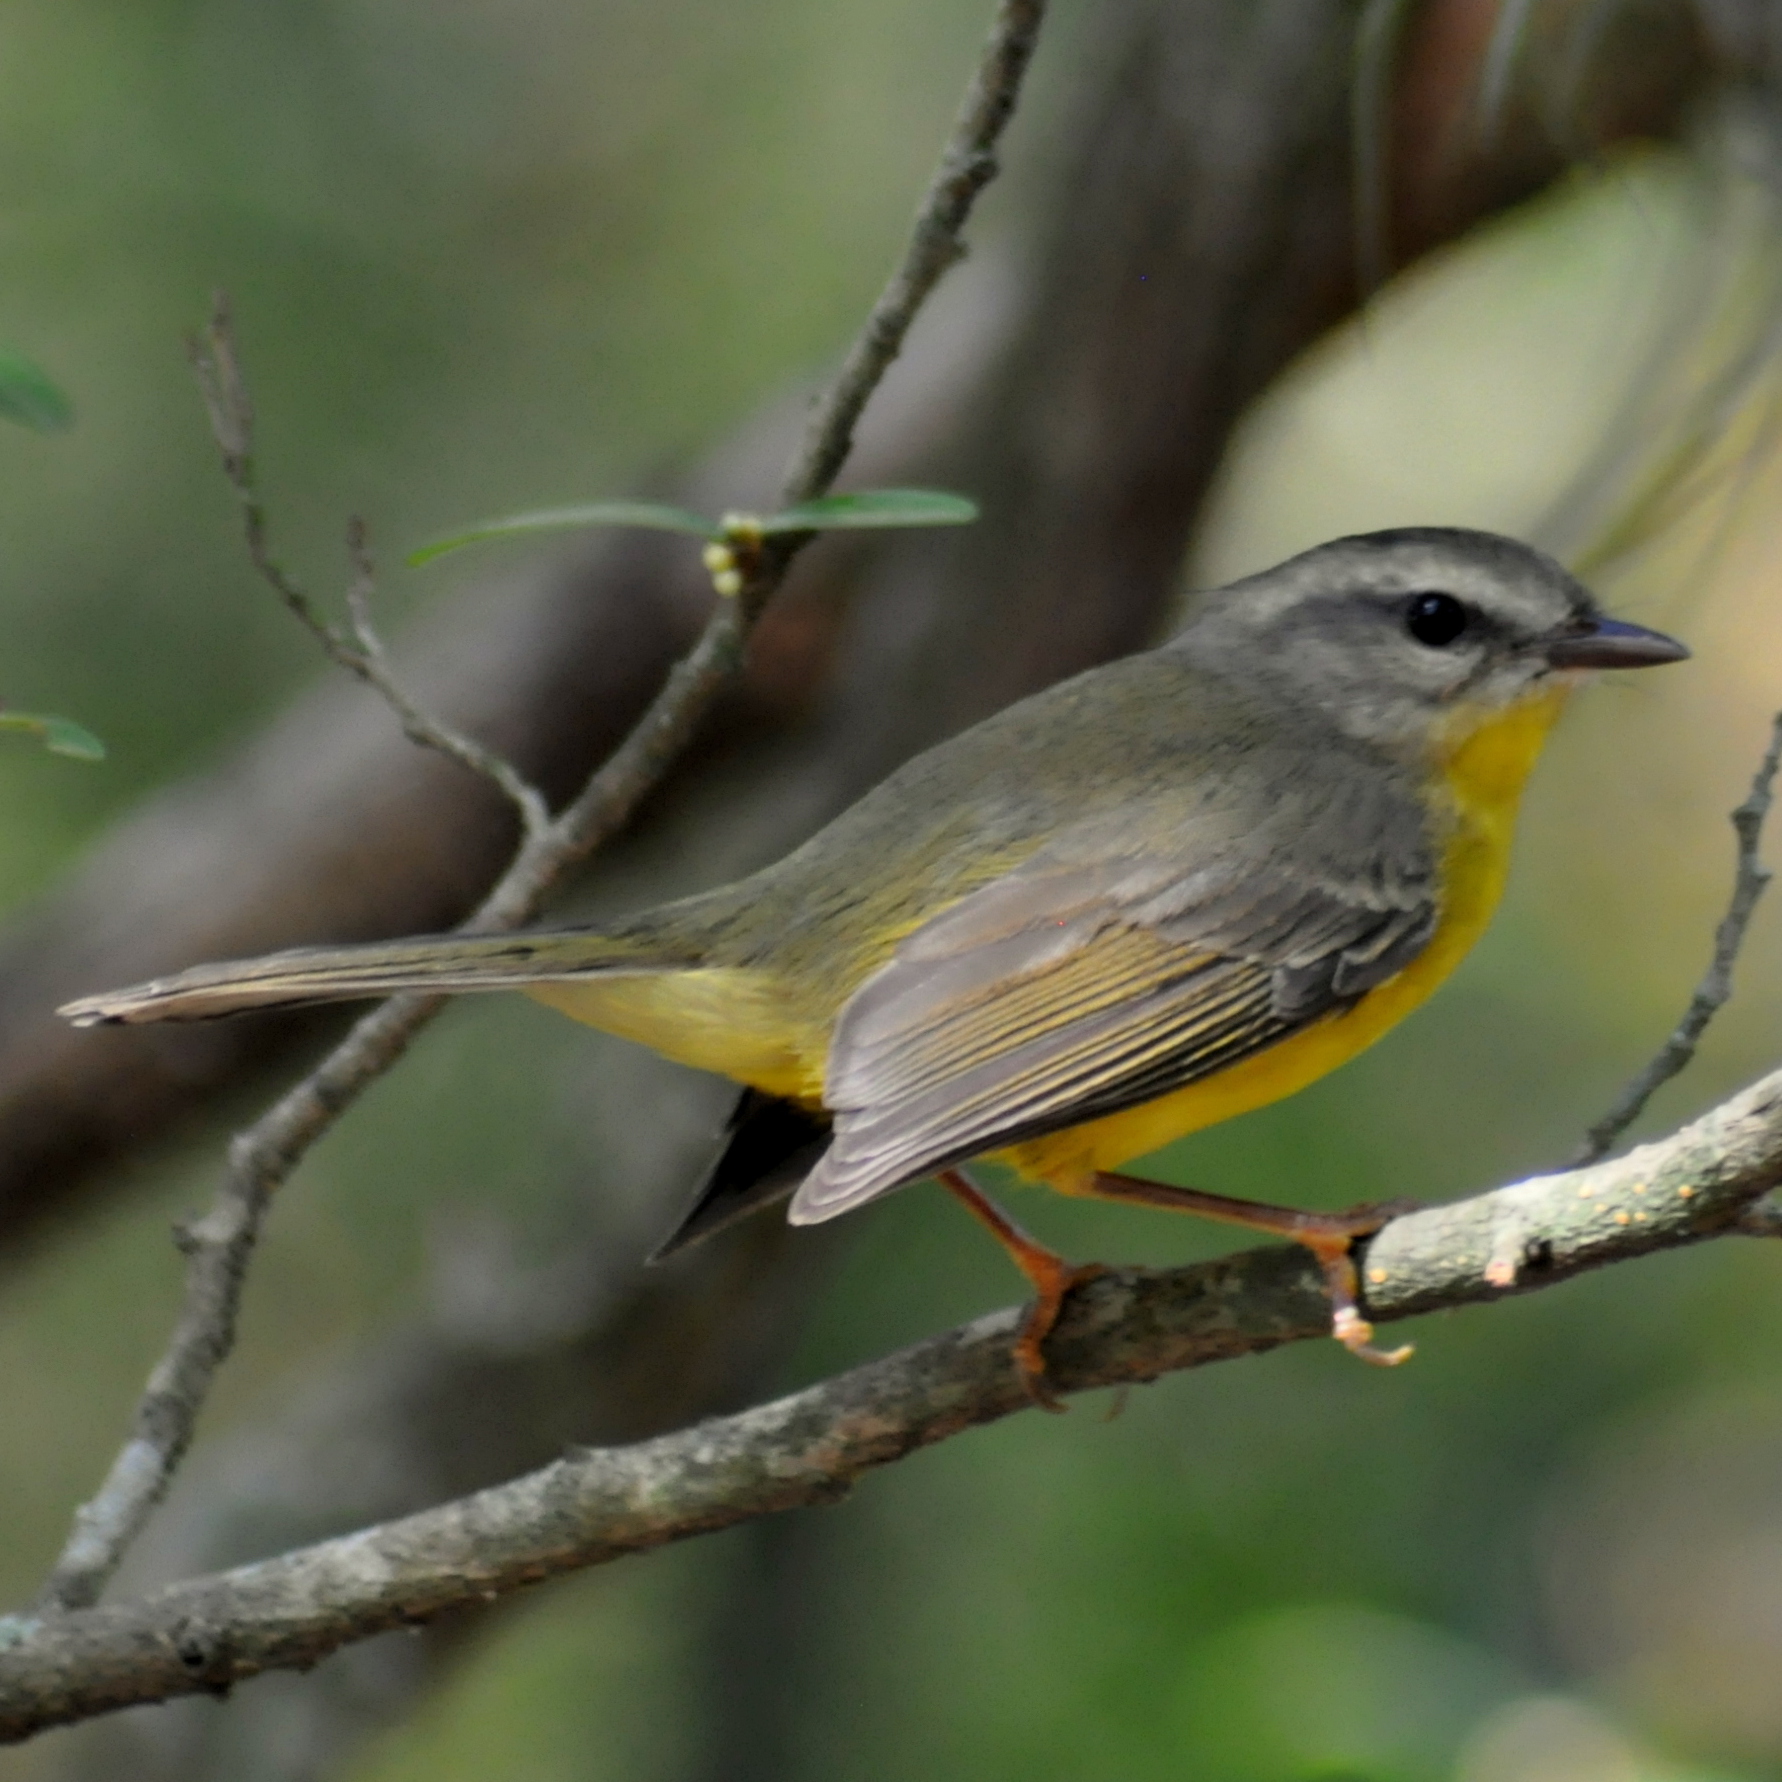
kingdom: Animalia
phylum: Chordata
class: Aves
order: Passeriformes
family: Parulidae
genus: Basileuterus
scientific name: Basileuterus culicivorus
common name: Golden-crowned warbler
